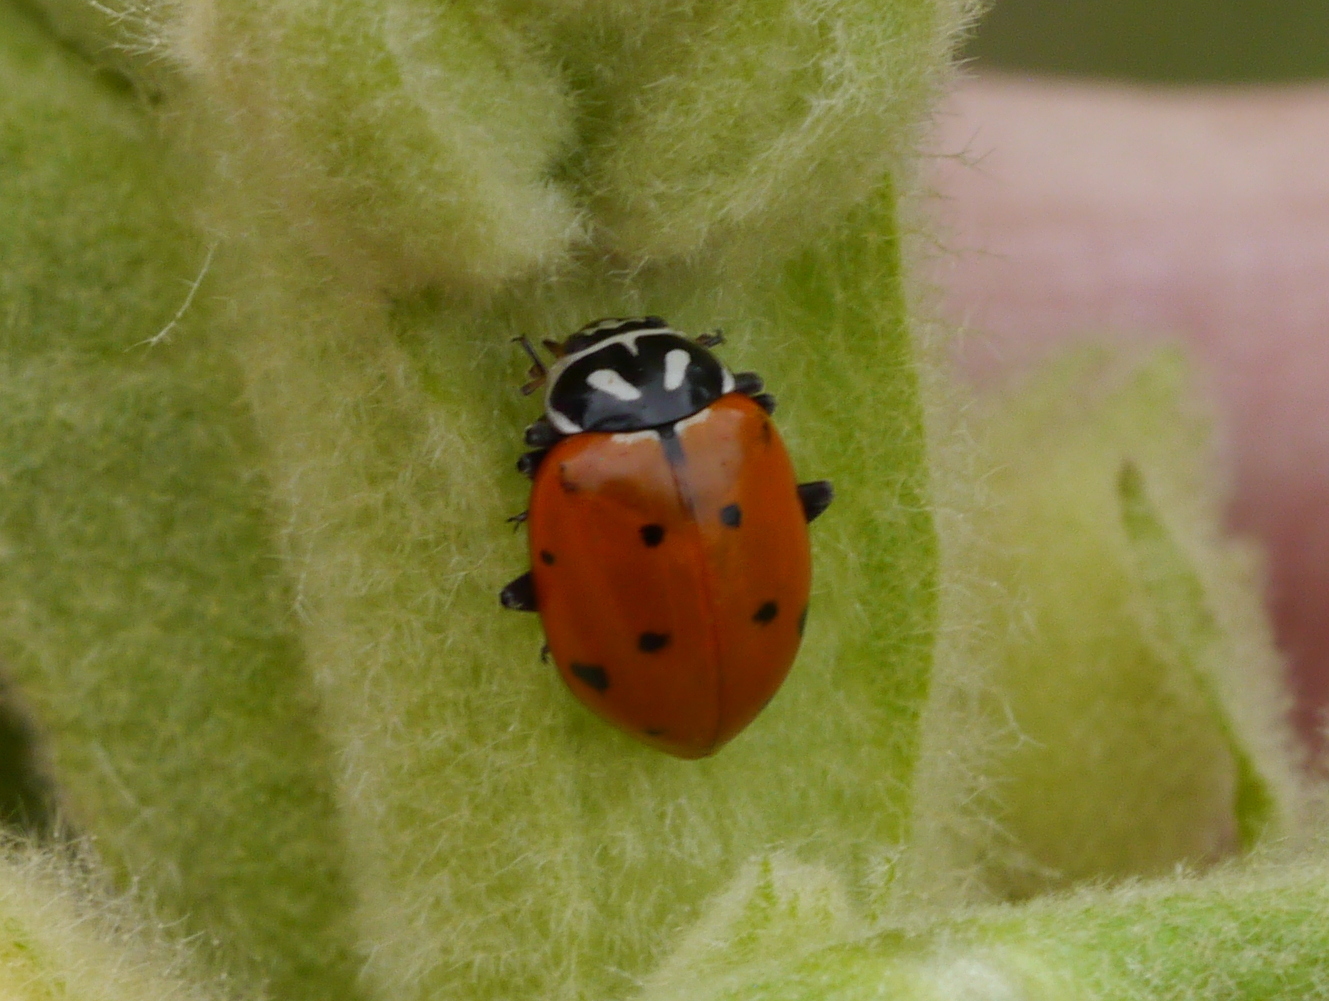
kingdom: Animalia
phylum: Arthropoda
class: Insecta
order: Coleoptera
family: Coccinellidae
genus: Hippodamia
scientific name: Hippodamia convergens
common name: Convergent lady beetle
